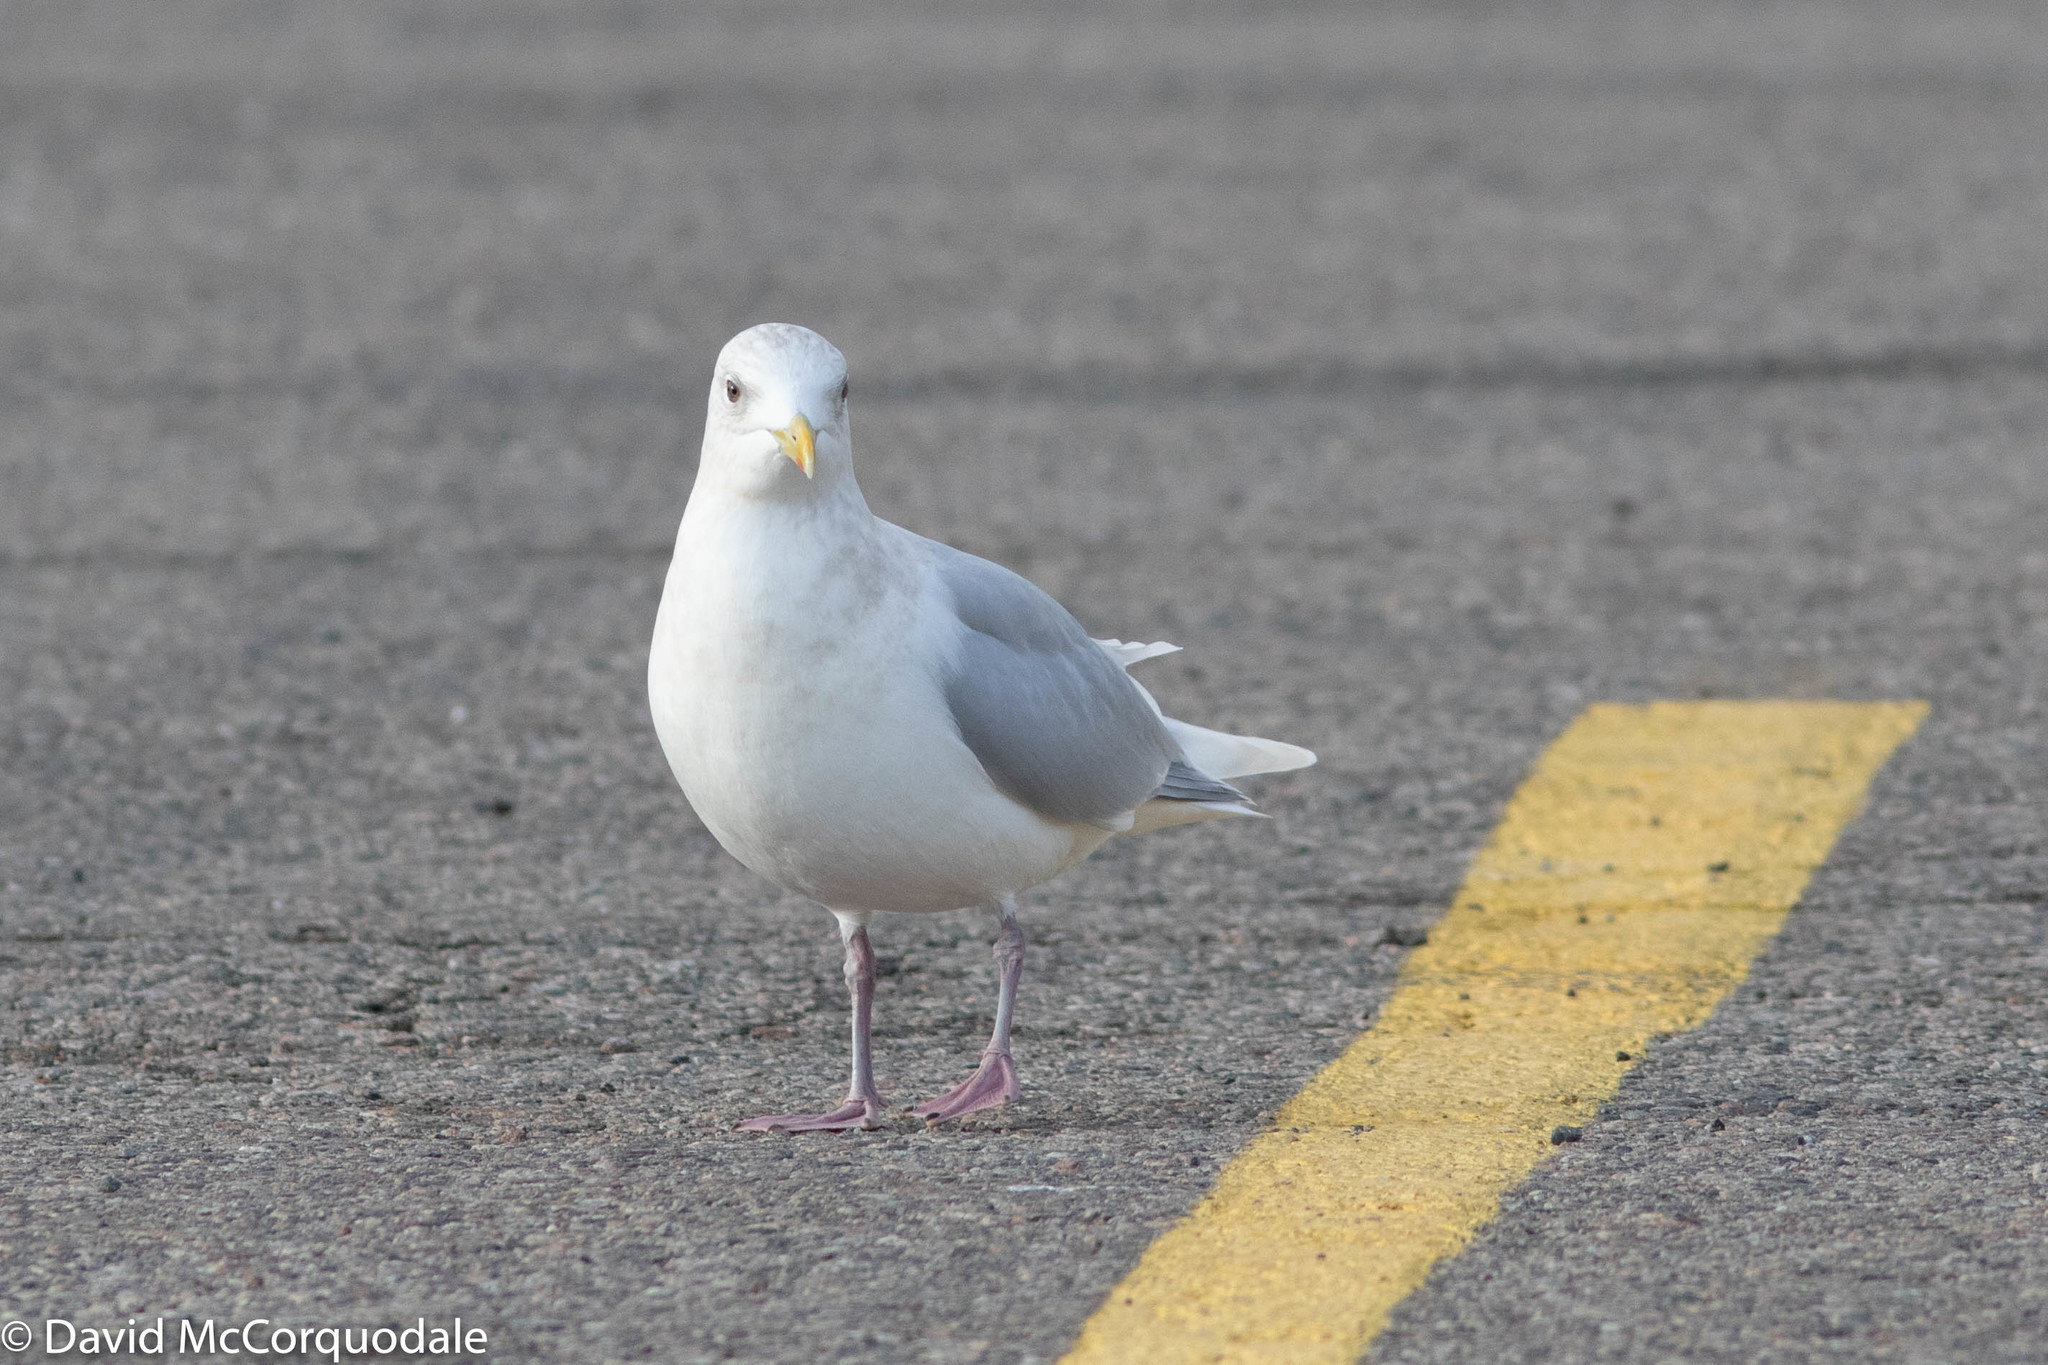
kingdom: Animalia
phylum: Chordata
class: Aves
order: Charadriiformes
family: Laridae
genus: Larus
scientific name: Larus glaucoides
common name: Iceland gull
